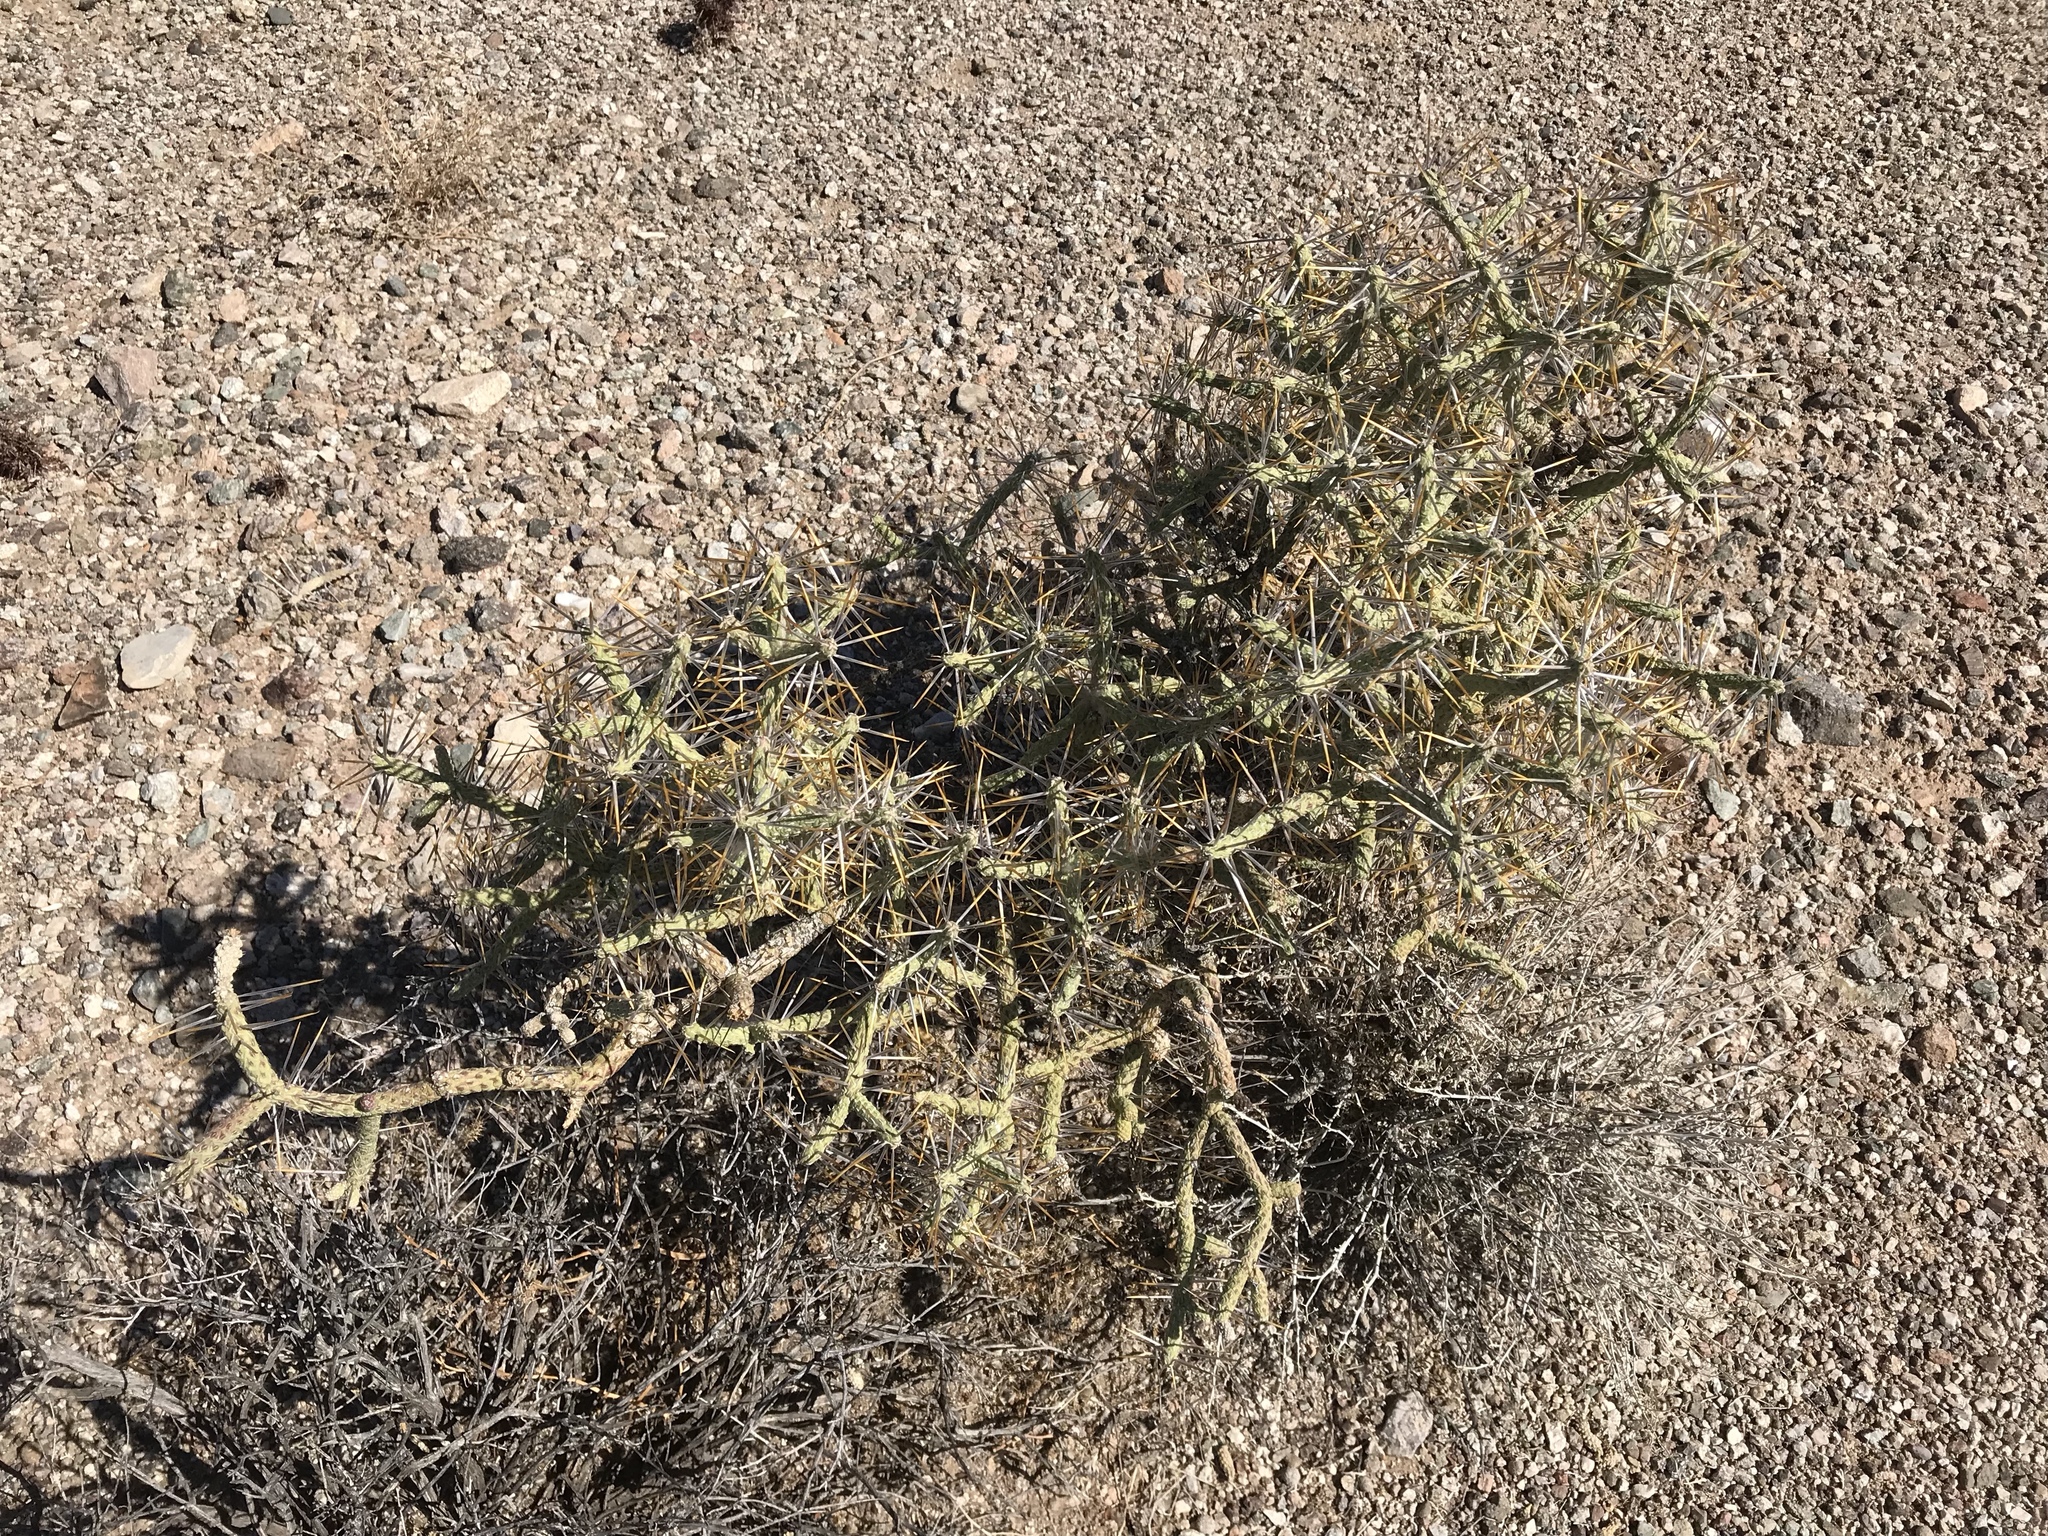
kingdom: Plantae
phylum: Tracheophyta
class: Magnoliopsida
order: Caryophyllales
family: Cactaceae
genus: Cylindropuntia
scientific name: Cylindropuntia ramosissima
